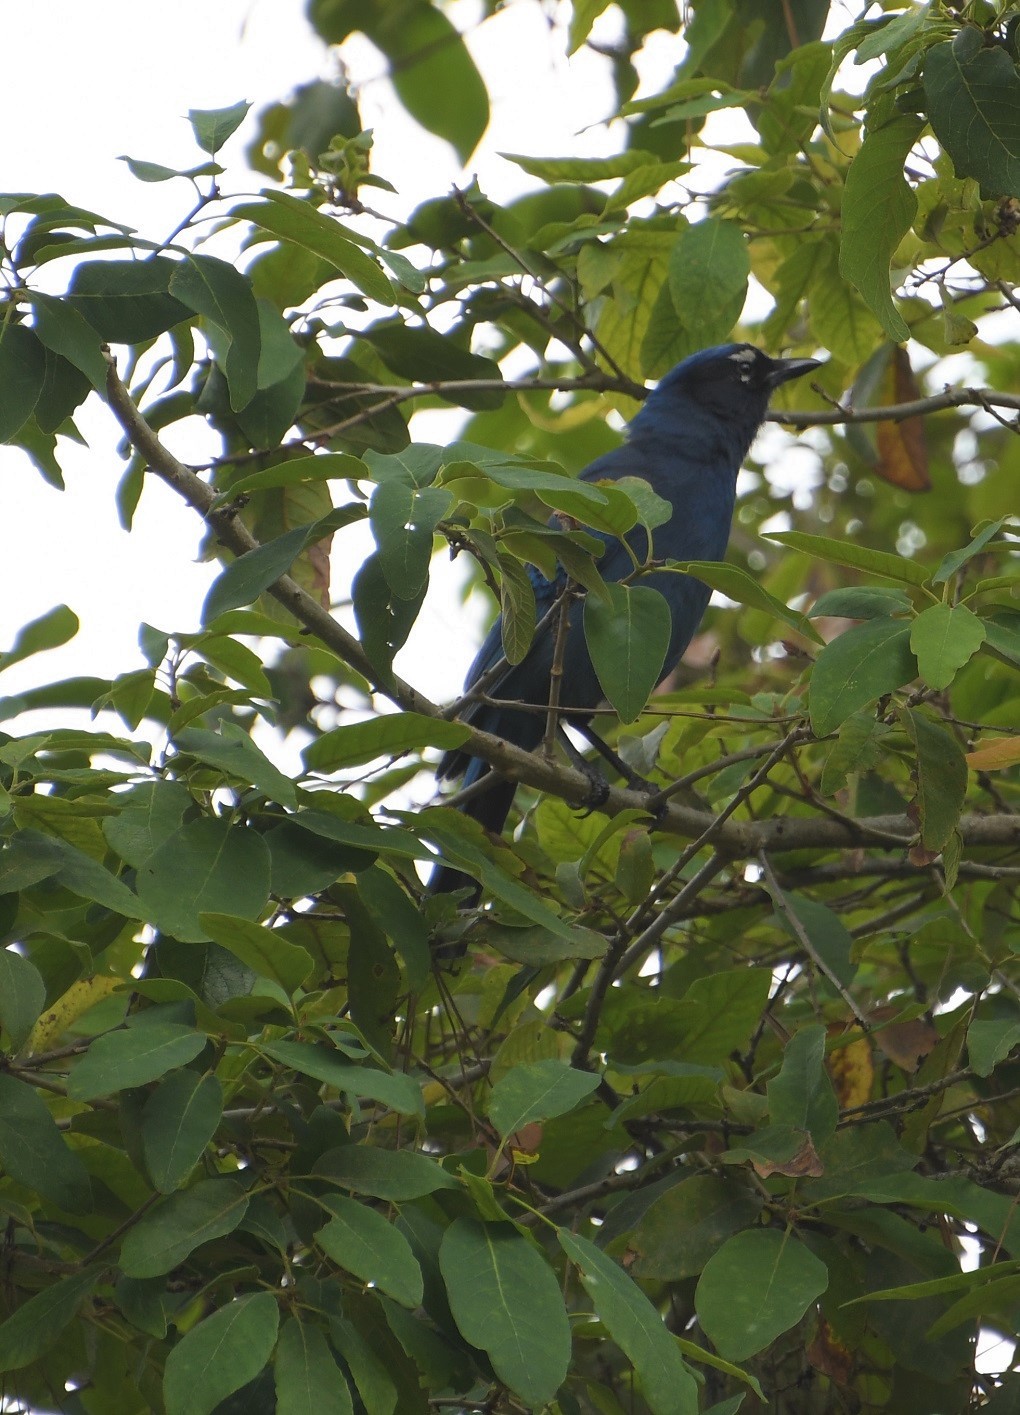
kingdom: Animalia
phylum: Chordata
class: Aves
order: Passeriformes
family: Corvidae
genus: Cyanocitta
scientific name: Cyanocitta stelleri
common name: Steller's jay
